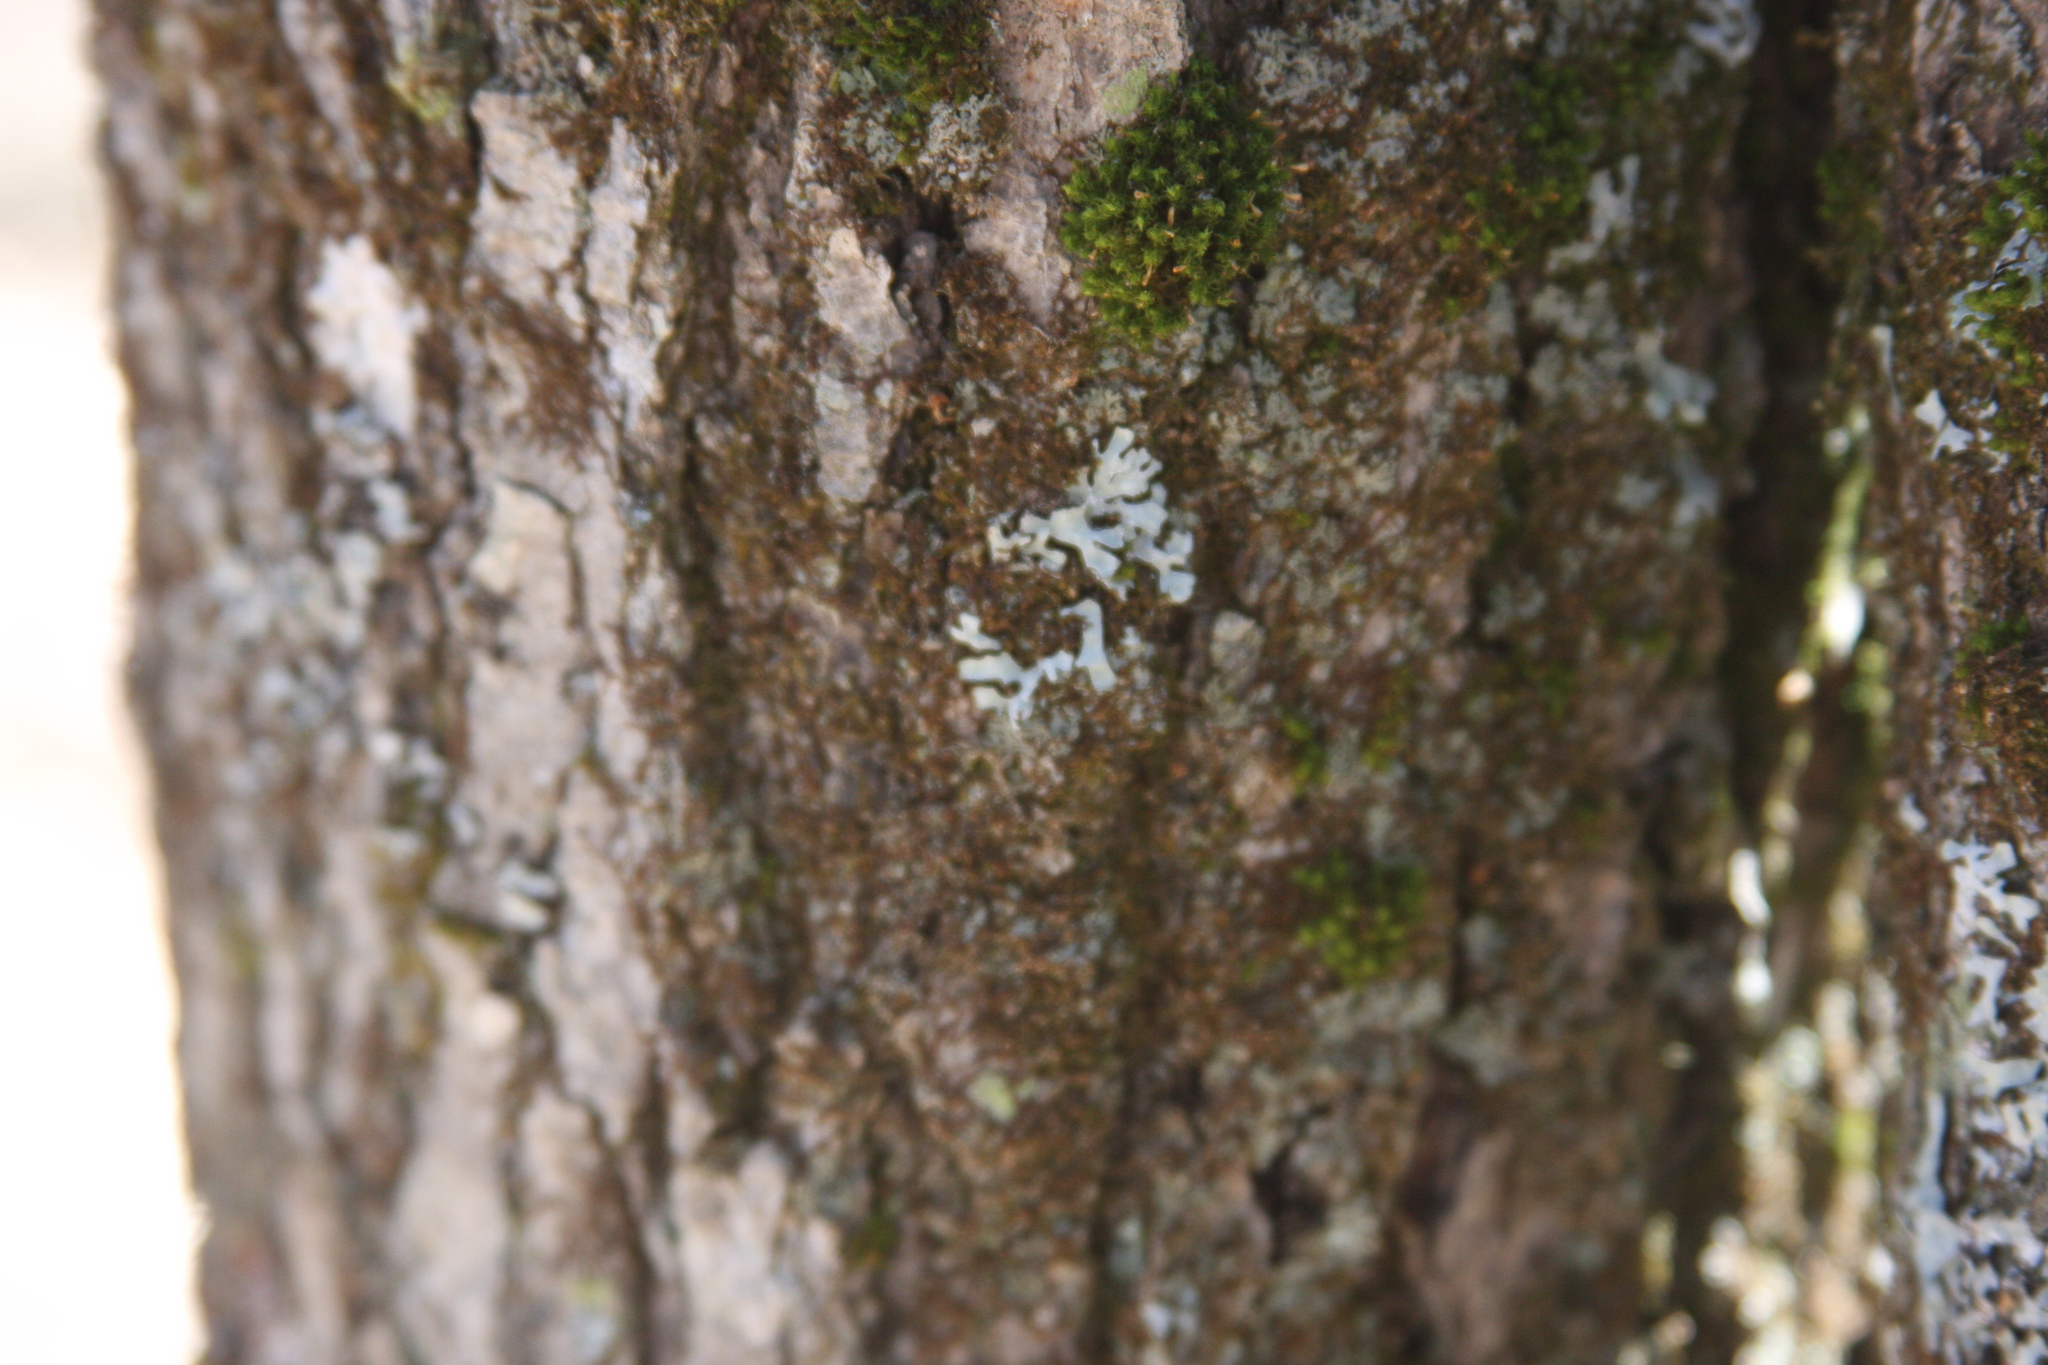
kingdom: Plantae
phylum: Bryophyta
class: Bryopsida
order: Orthotrichales
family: Orthotrichaceae
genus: Ulota
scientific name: Ulota crispa
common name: Crisped pincushion moss
